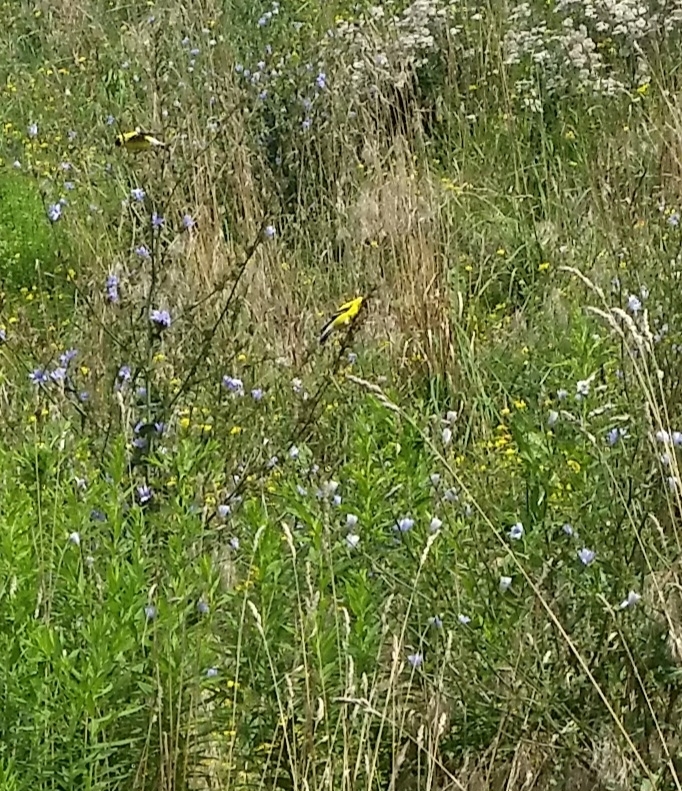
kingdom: Animalia
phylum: Chordata
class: Aves
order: Passeriformes
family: Fringillidae
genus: Spinus
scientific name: Spinus tristis
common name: American goldfinch
